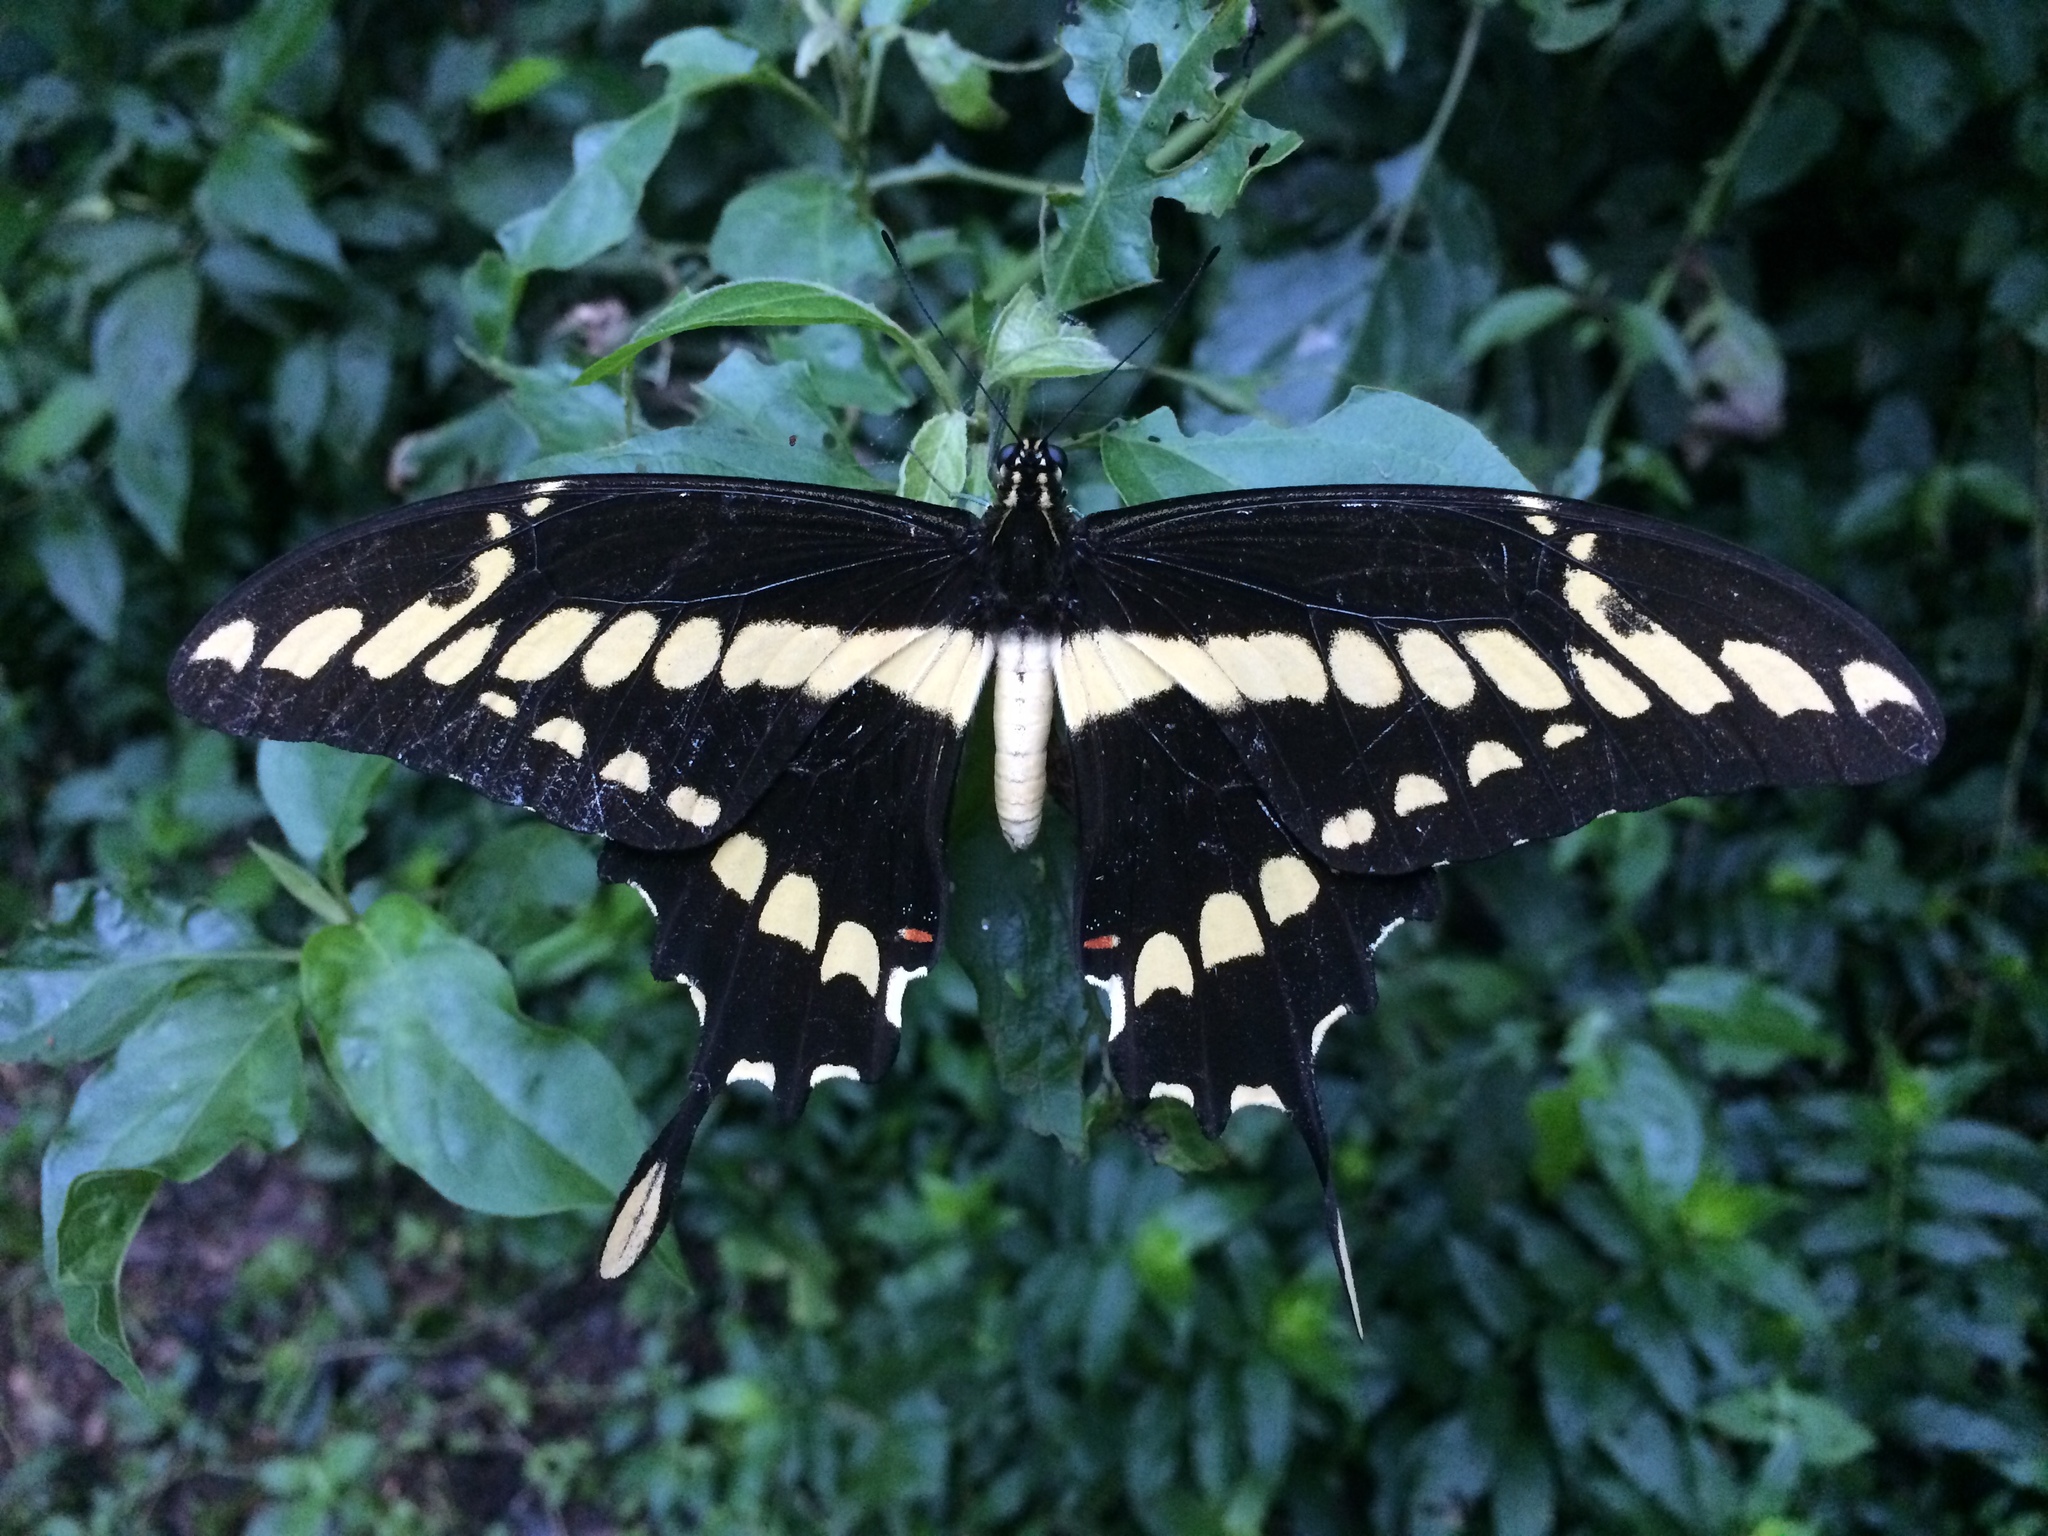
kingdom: Animalia
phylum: Arthropoda
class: Insecta
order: Lepidoptera
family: Papilionidae
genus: Papilio
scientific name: Papilio thoas
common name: King swallowtail
